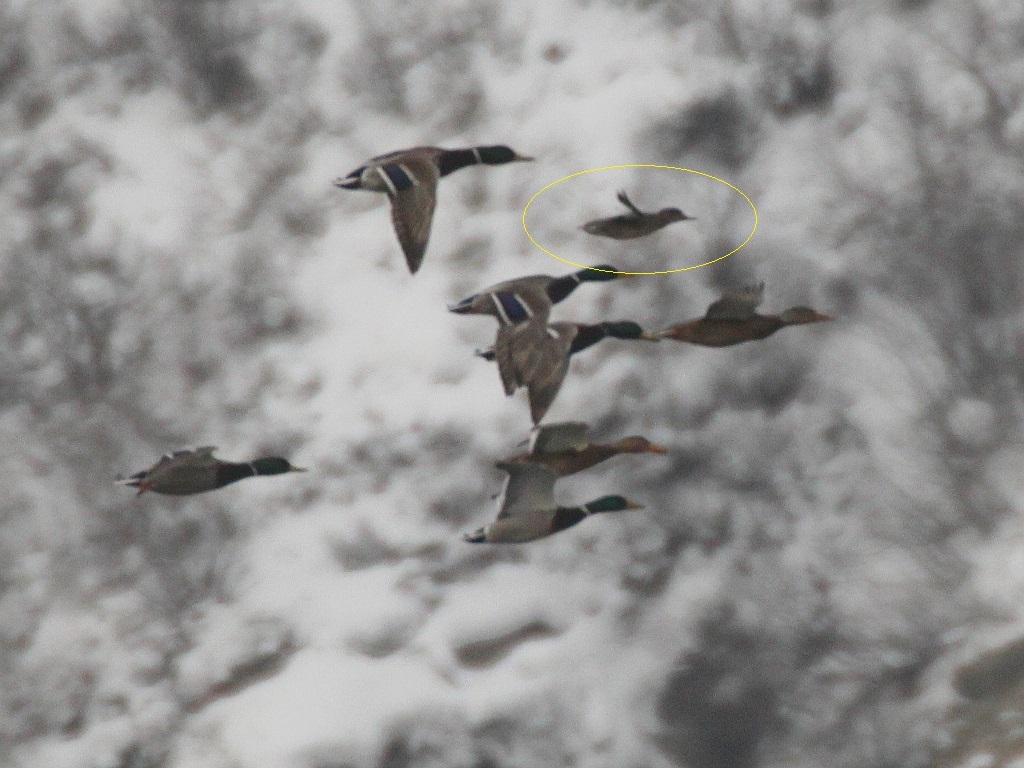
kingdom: Animalia
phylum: Chordata
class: Aves
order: Anseriformes
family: Anatidae
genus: Anas
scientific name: Anas crecca
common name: Eurasian teal
